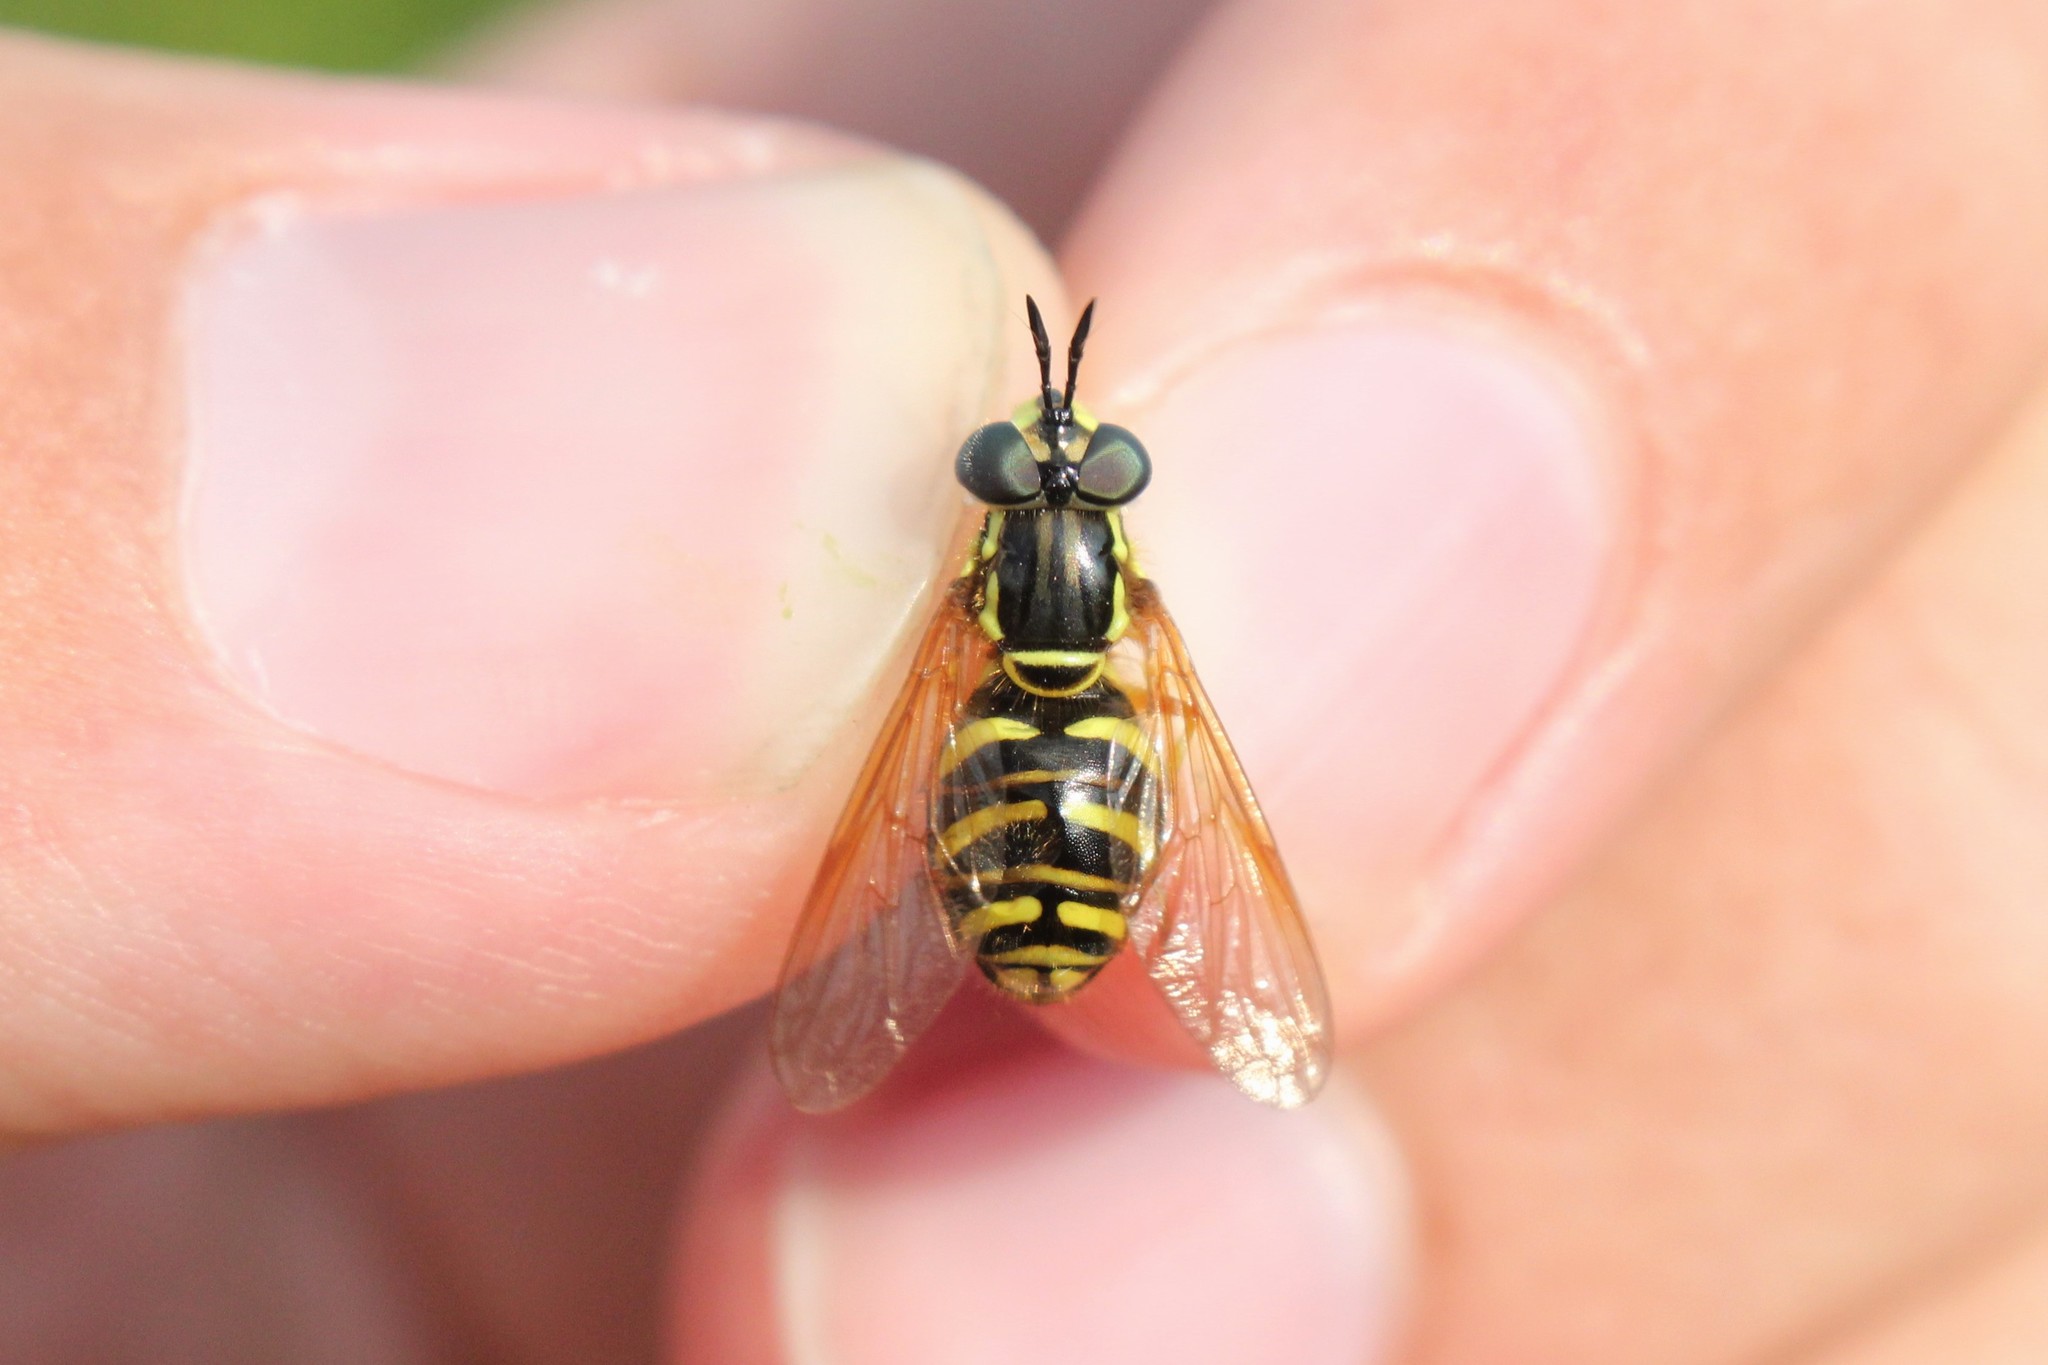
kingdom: Animalia
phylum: Arthropoda
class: Insecta
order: Diptera
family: Syrphidae
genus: Chrysotoxum
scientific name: Chrysotoxum pubescens
